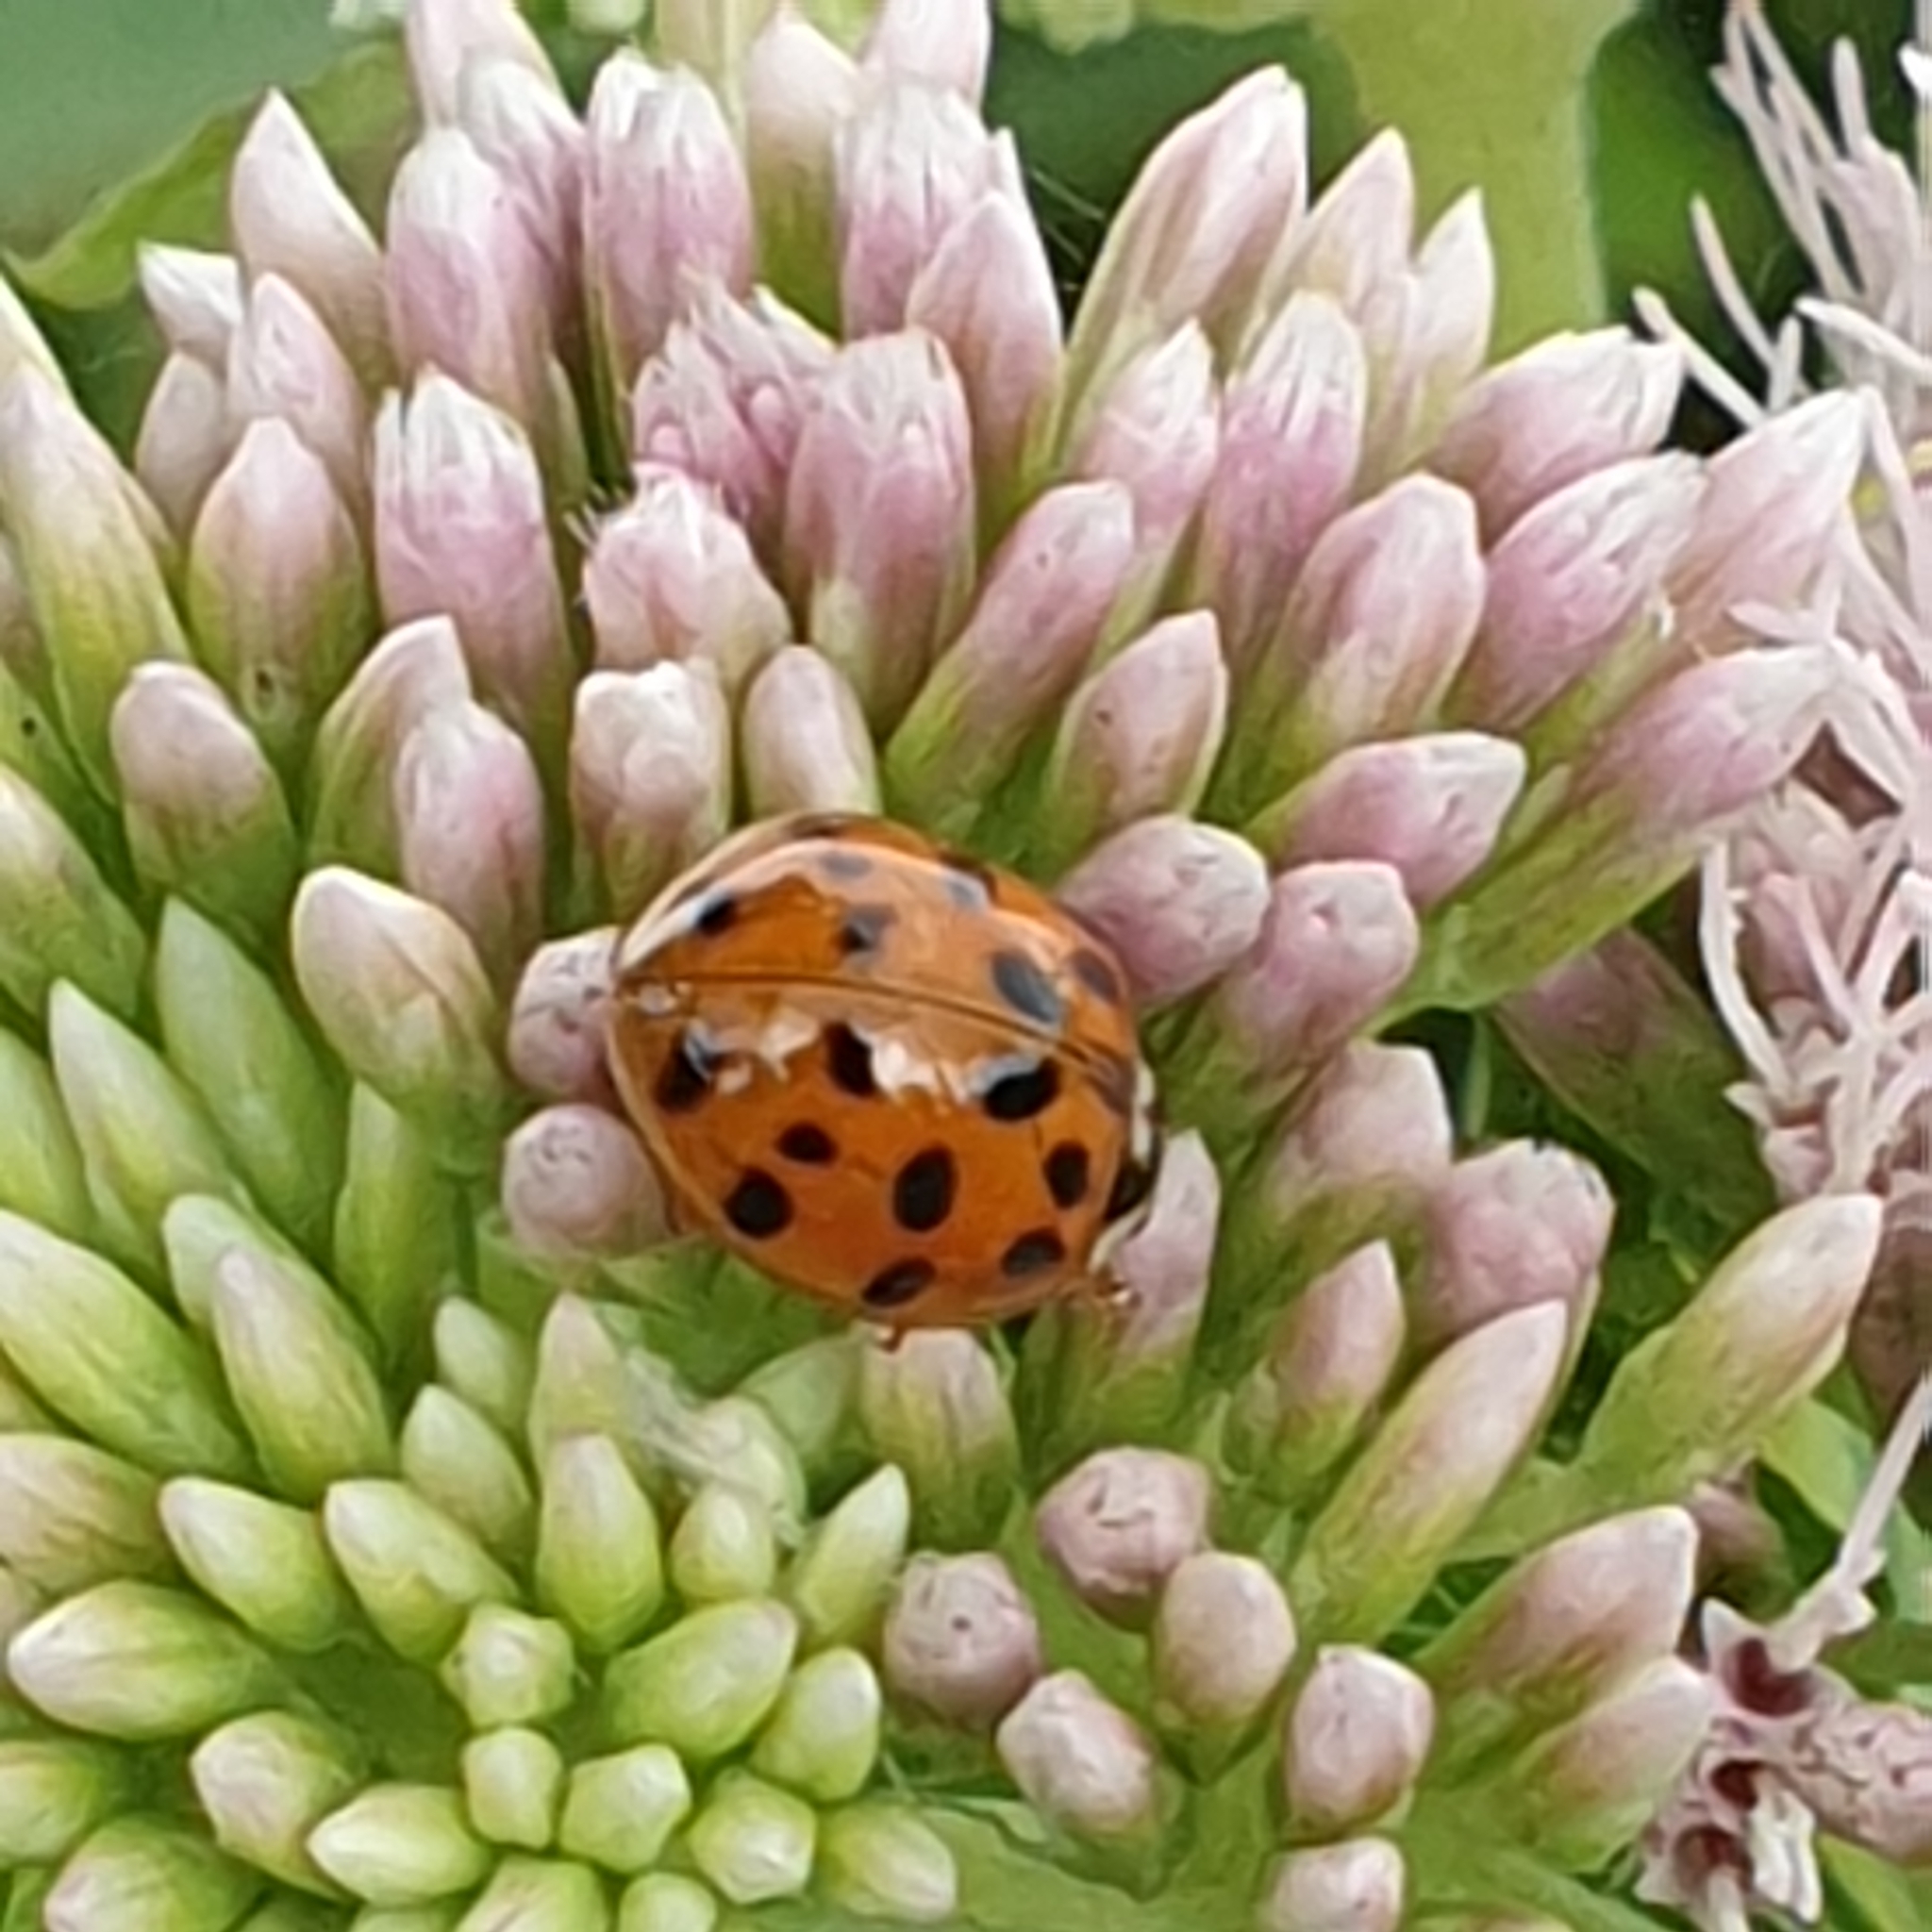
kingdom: Animalia
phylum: Arthropoda
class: Insecta
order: Coleoptera
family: Coccinellidae
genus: Harmonia
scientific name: Harmonia axyridis
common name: Harlequin ladybird
